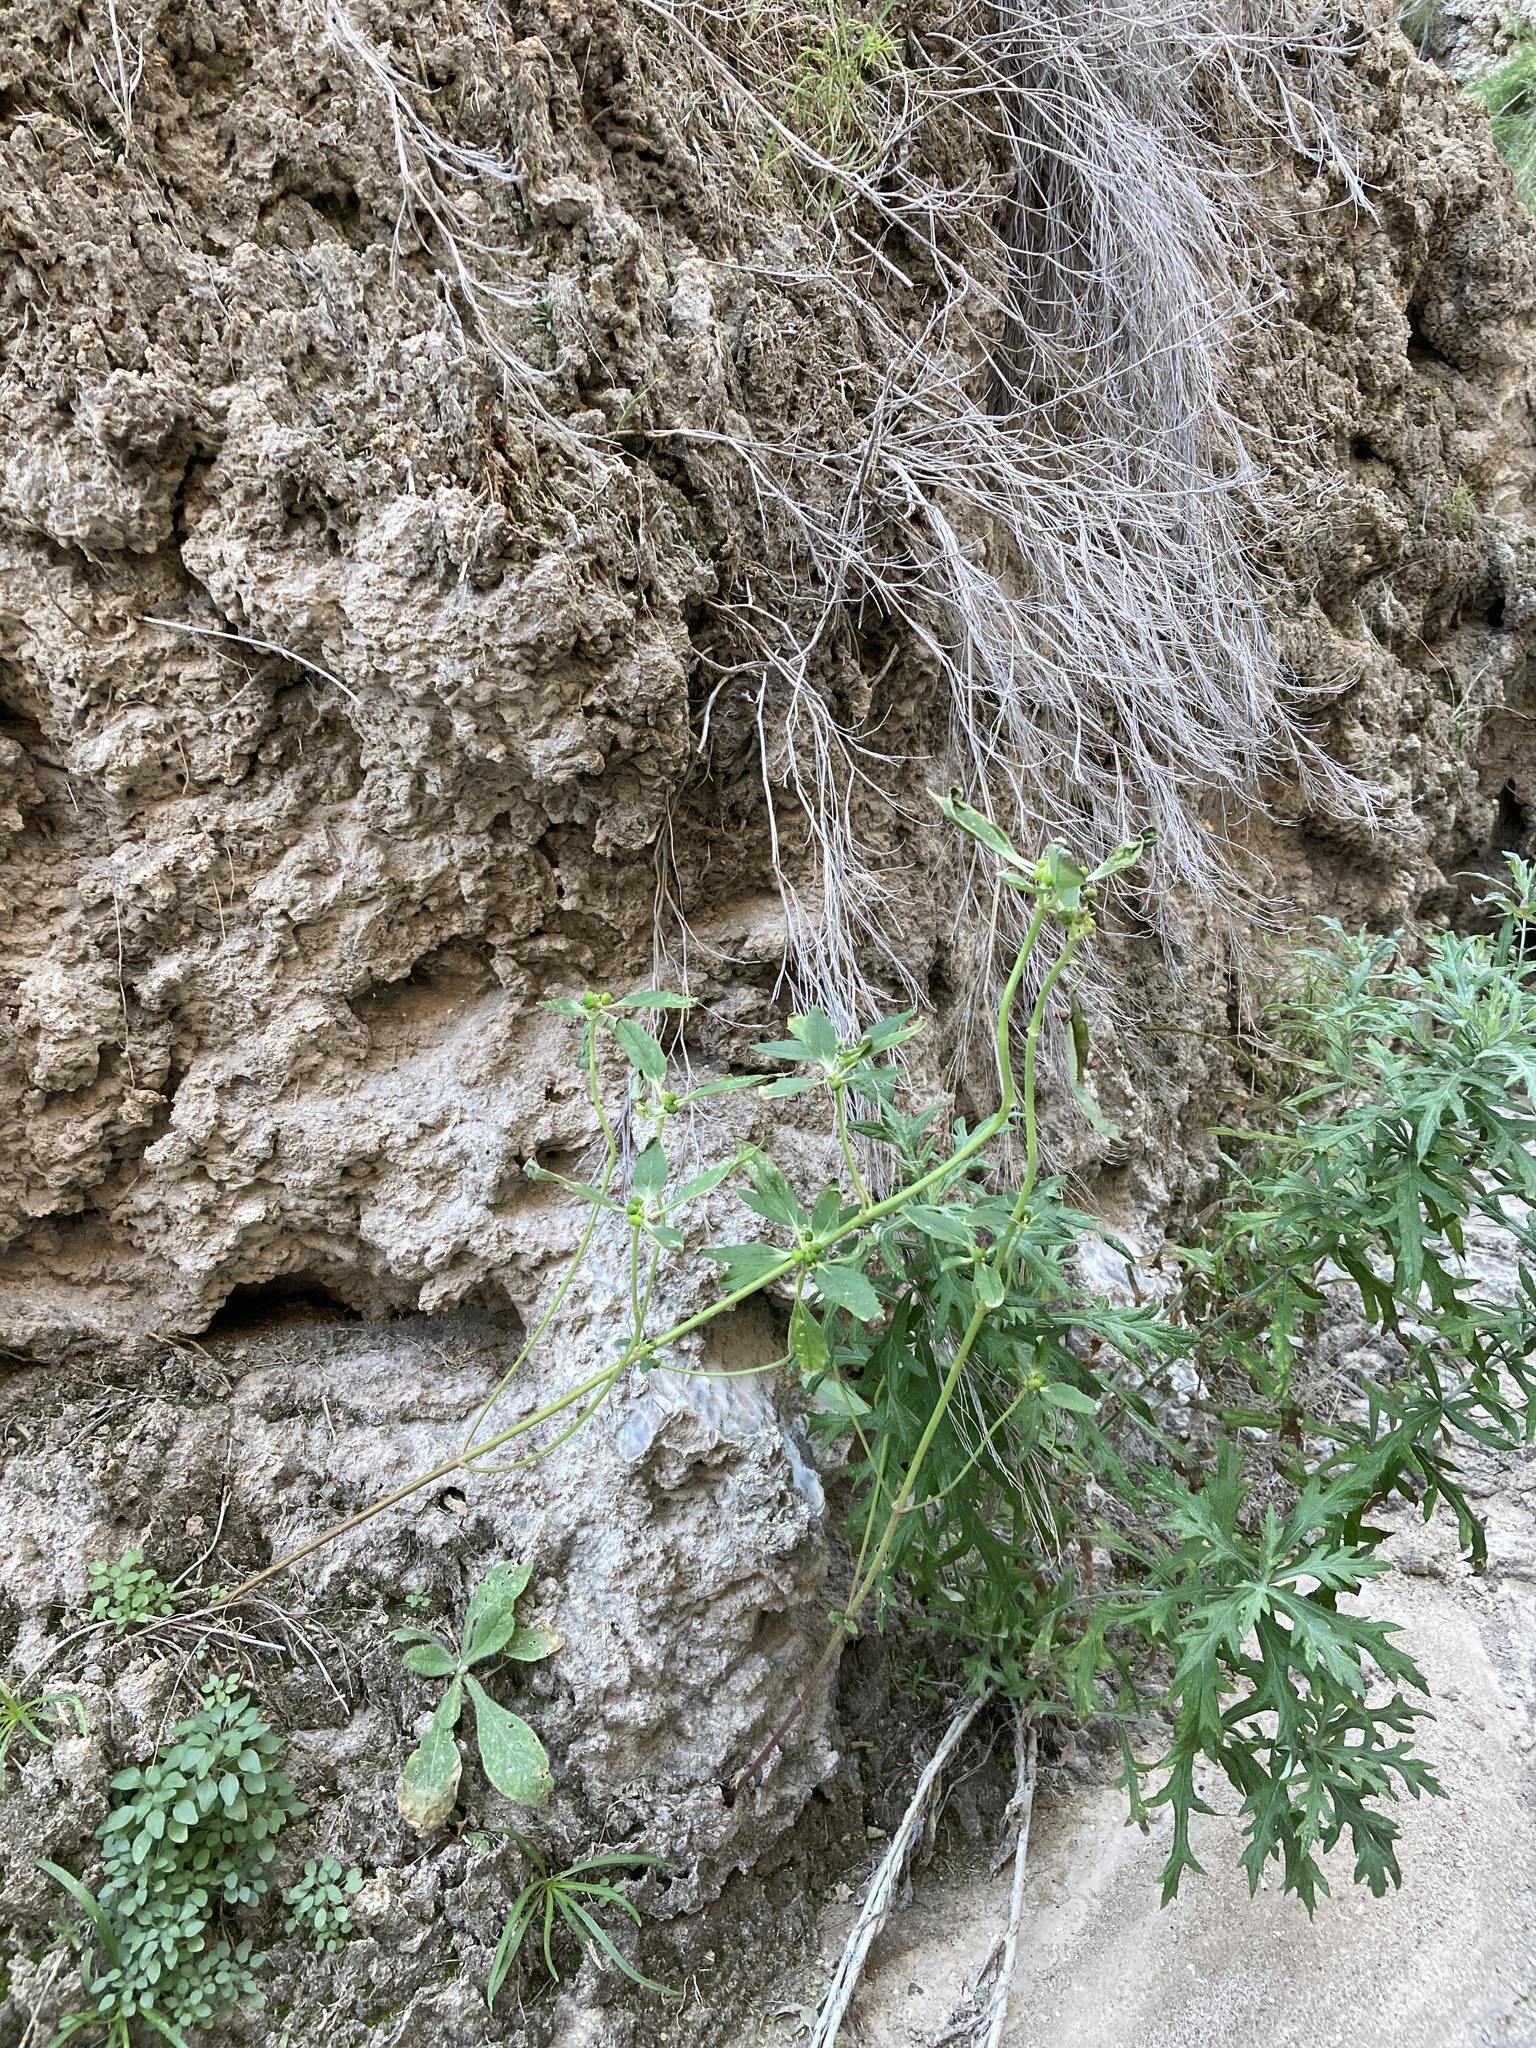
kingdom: Plantae
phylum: Tracheophyta
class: Magnoliopsida
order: Malpighiales
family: Euphorbiaceae
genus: Euphorbia
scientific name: Euphorbia davidii
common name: David's spurge
